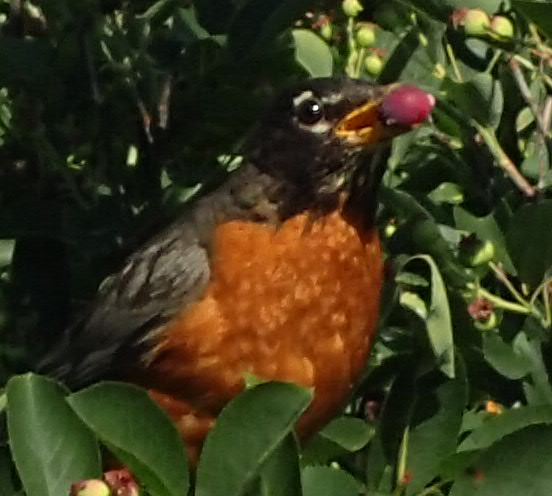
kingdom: Animalia
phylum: Chordata
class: Aves
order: Passeriformes
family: Turdidae
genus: Turdus
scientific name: Turdus migratorius
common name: American robin
